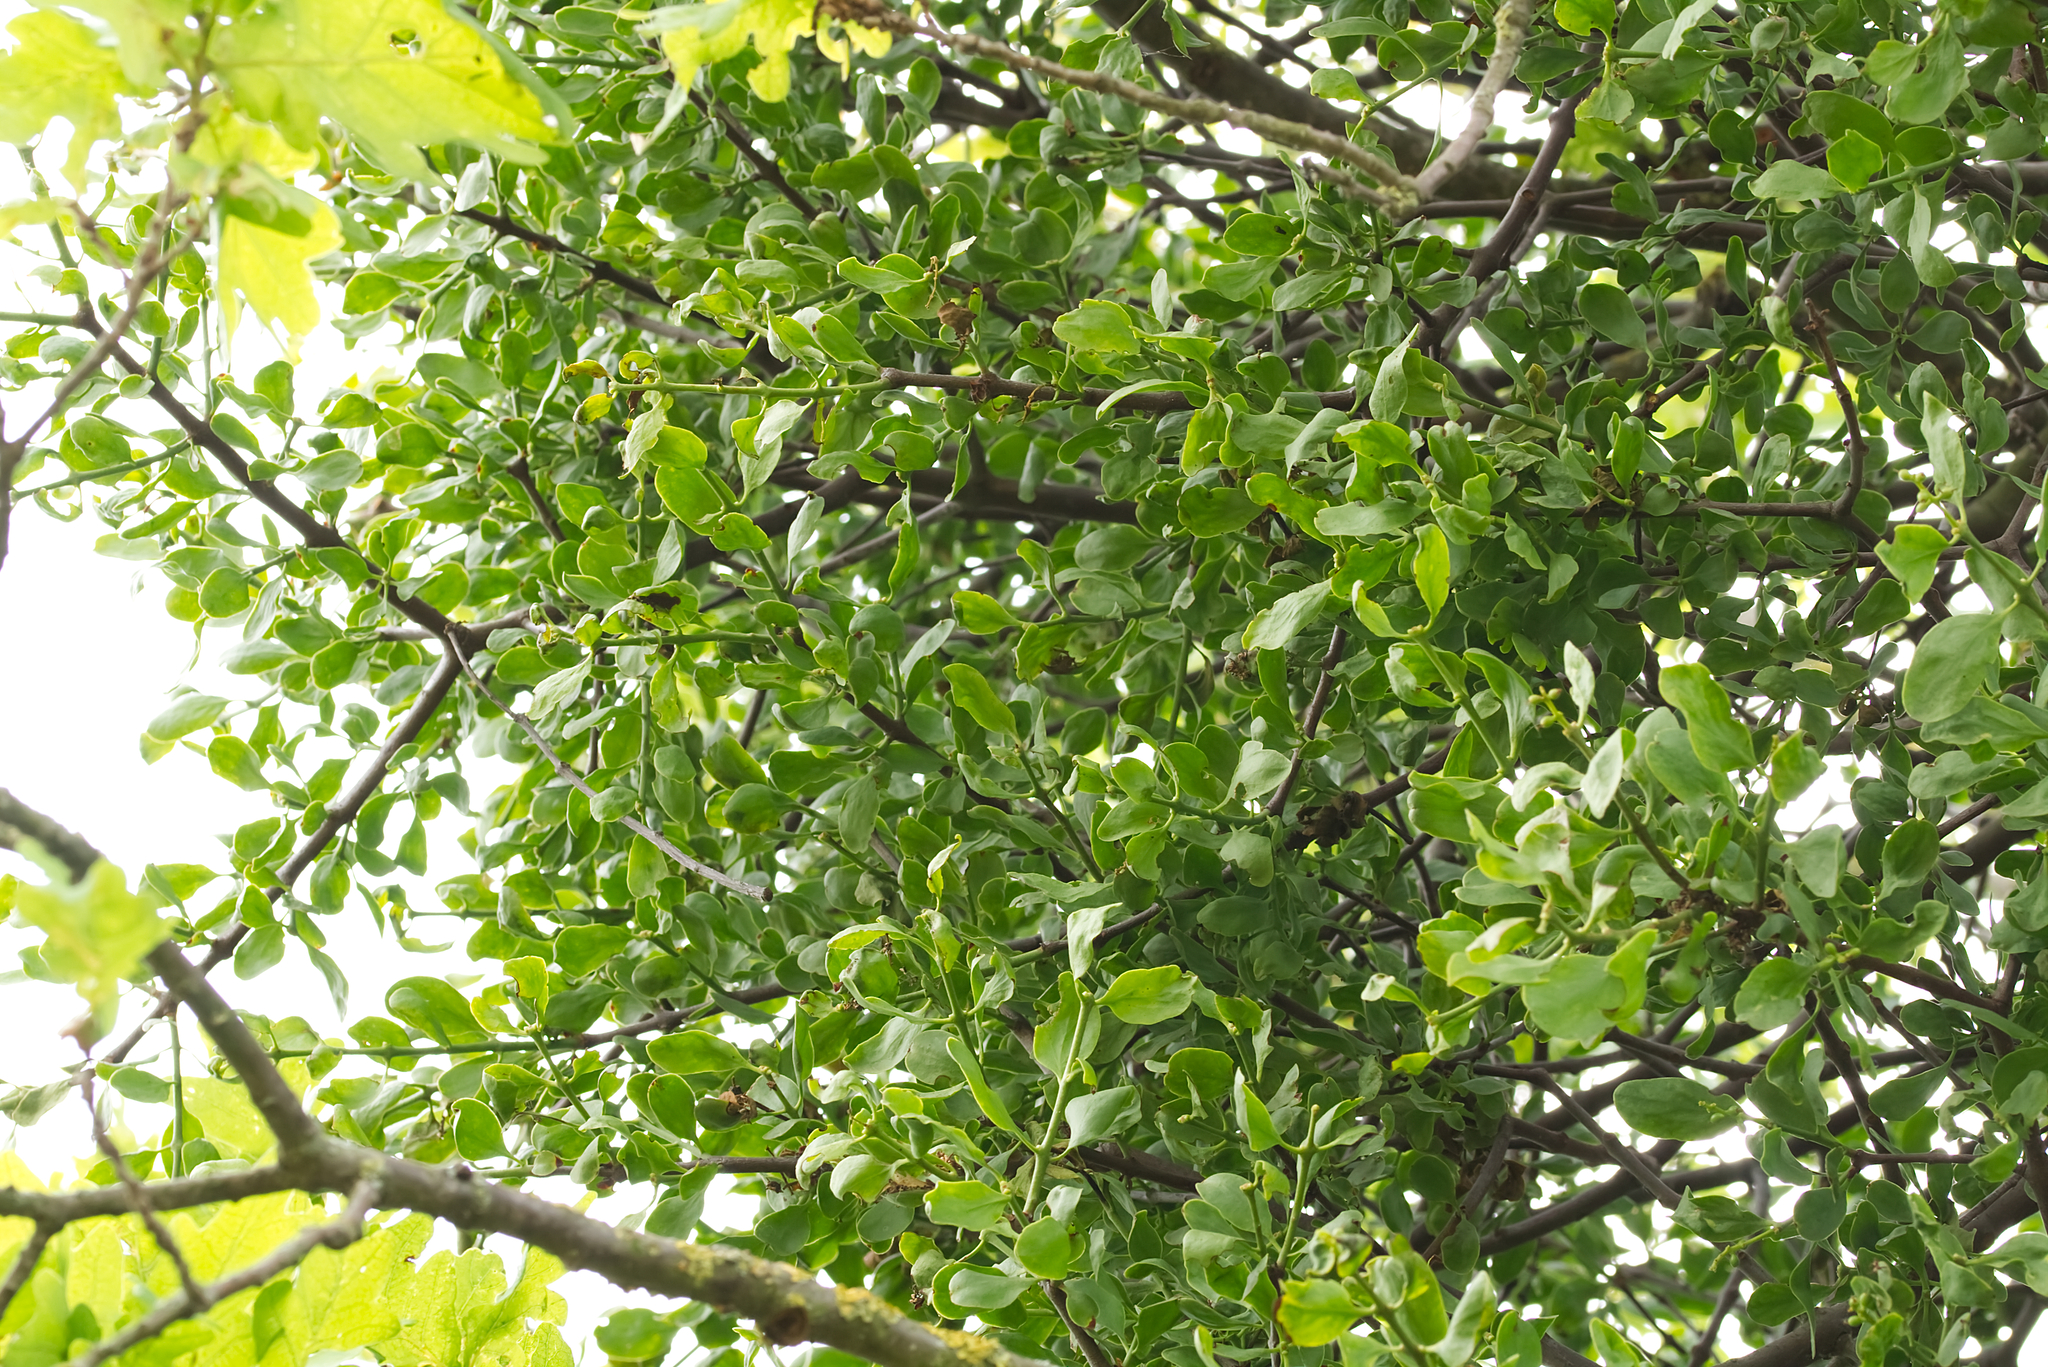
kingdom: Plantae
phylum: Tracheophyta
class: Magnoliopsida
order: Santalales
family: Loranthaceae
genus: Loranthus
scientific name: Loranthus europaeus
